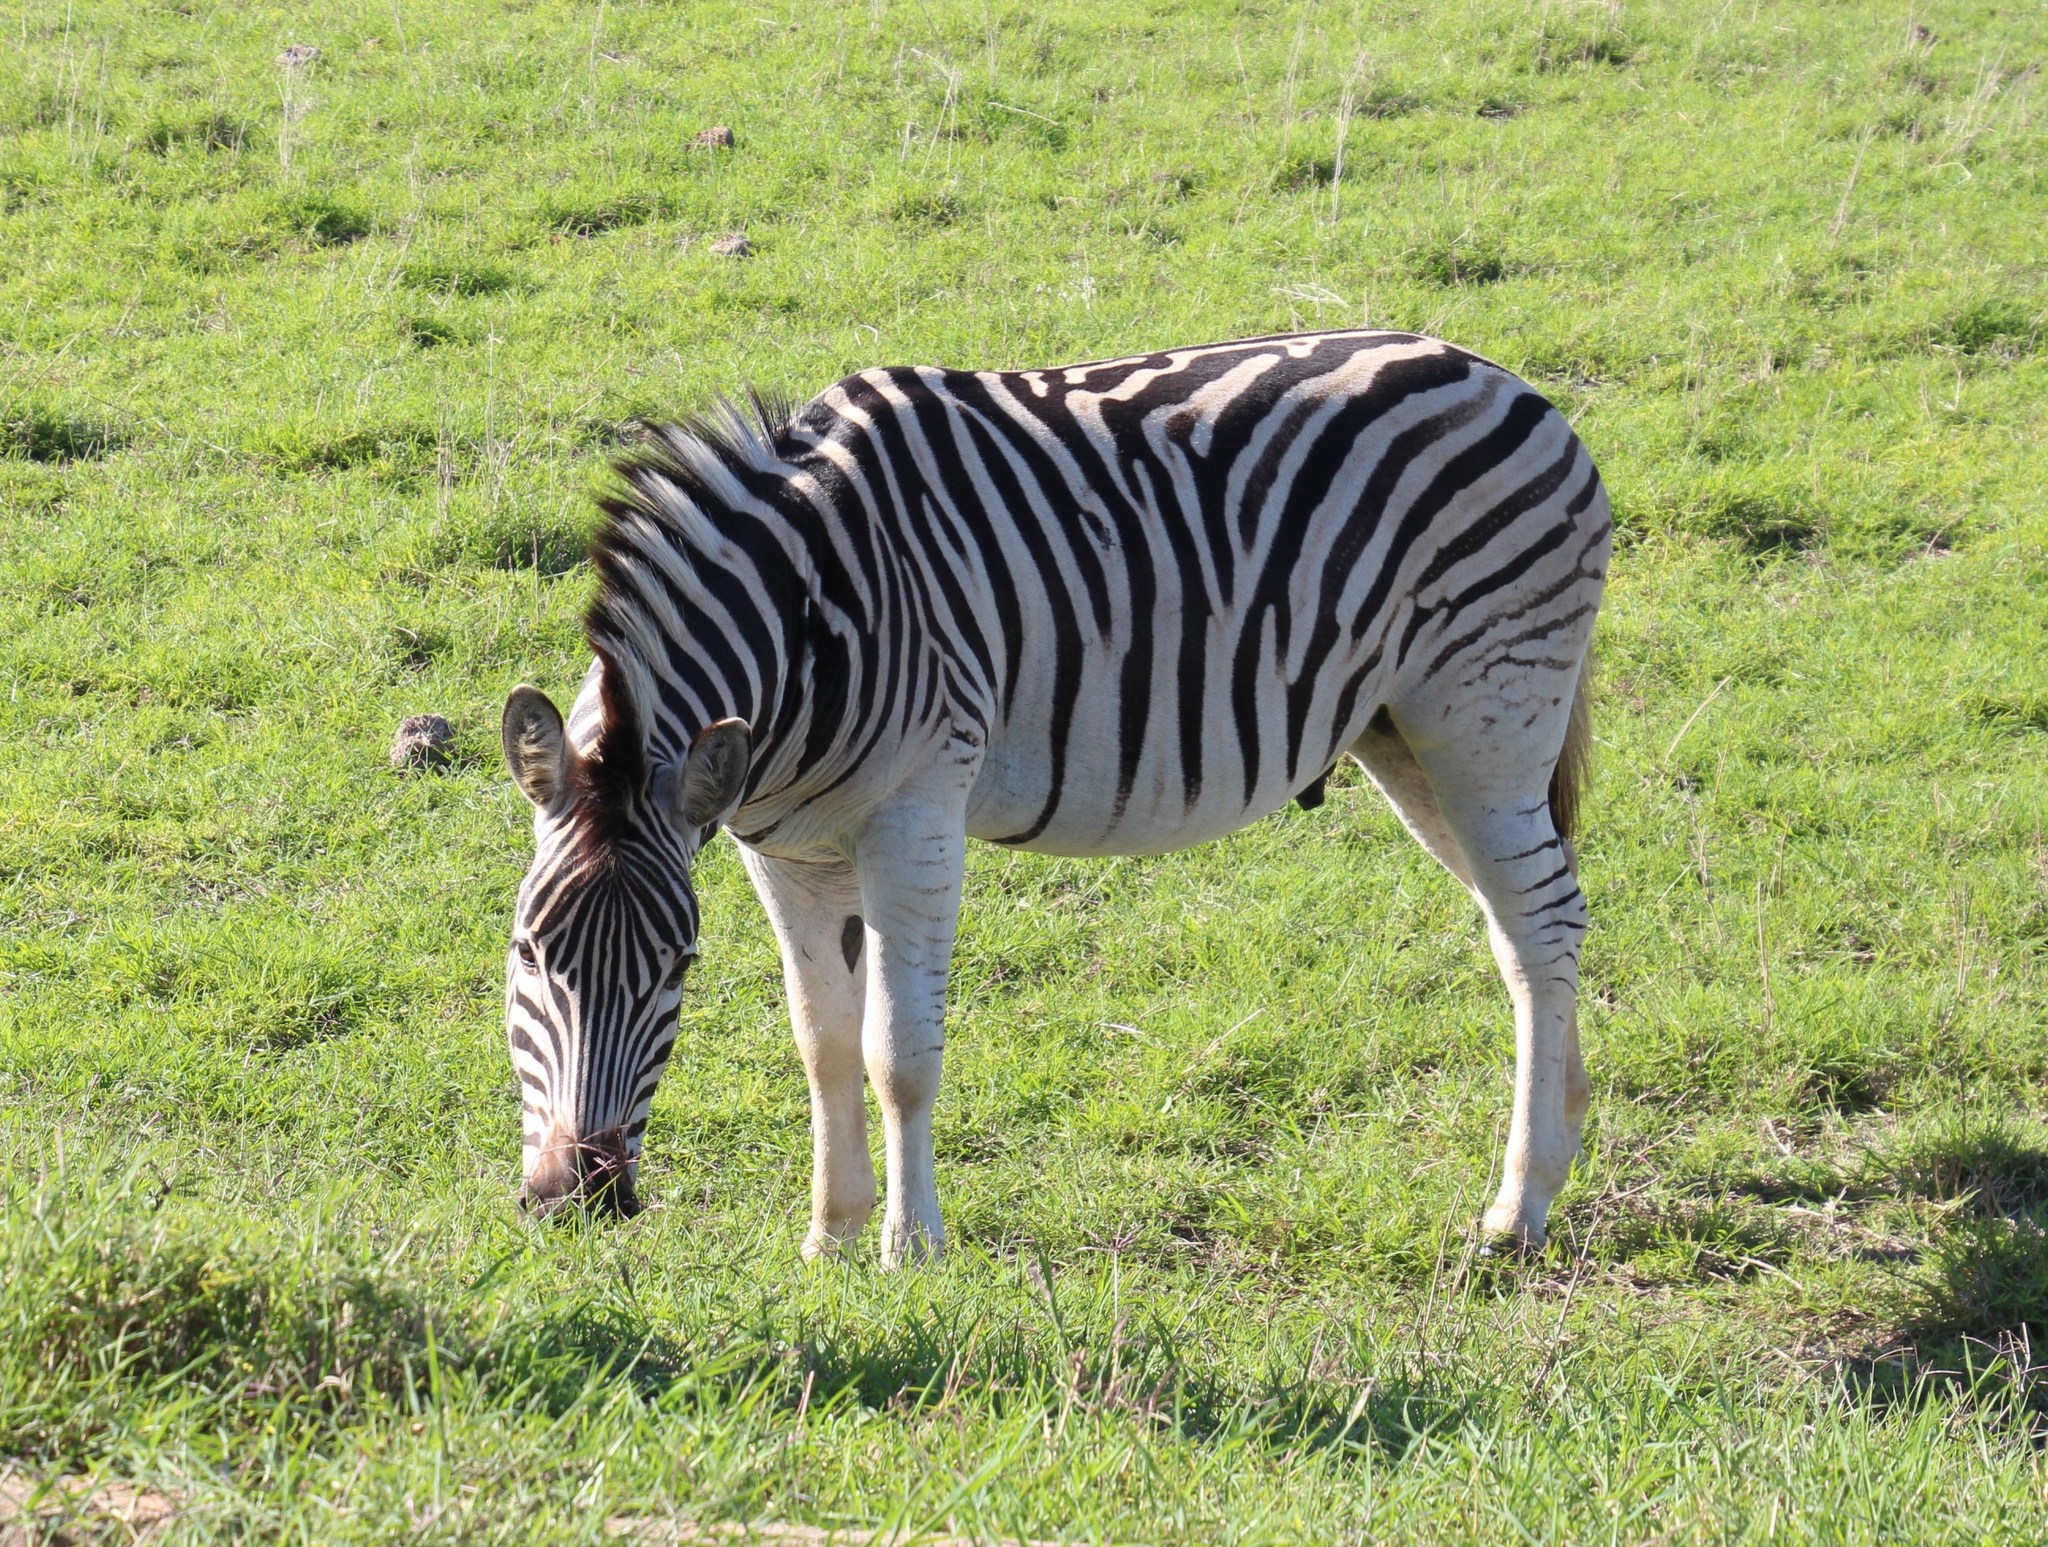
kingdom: Animalia
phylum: Chordata
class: Mammalia
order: Perissodactyla
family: Equidae
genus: Equus
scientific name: Equus quagga
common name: Plains zebra
